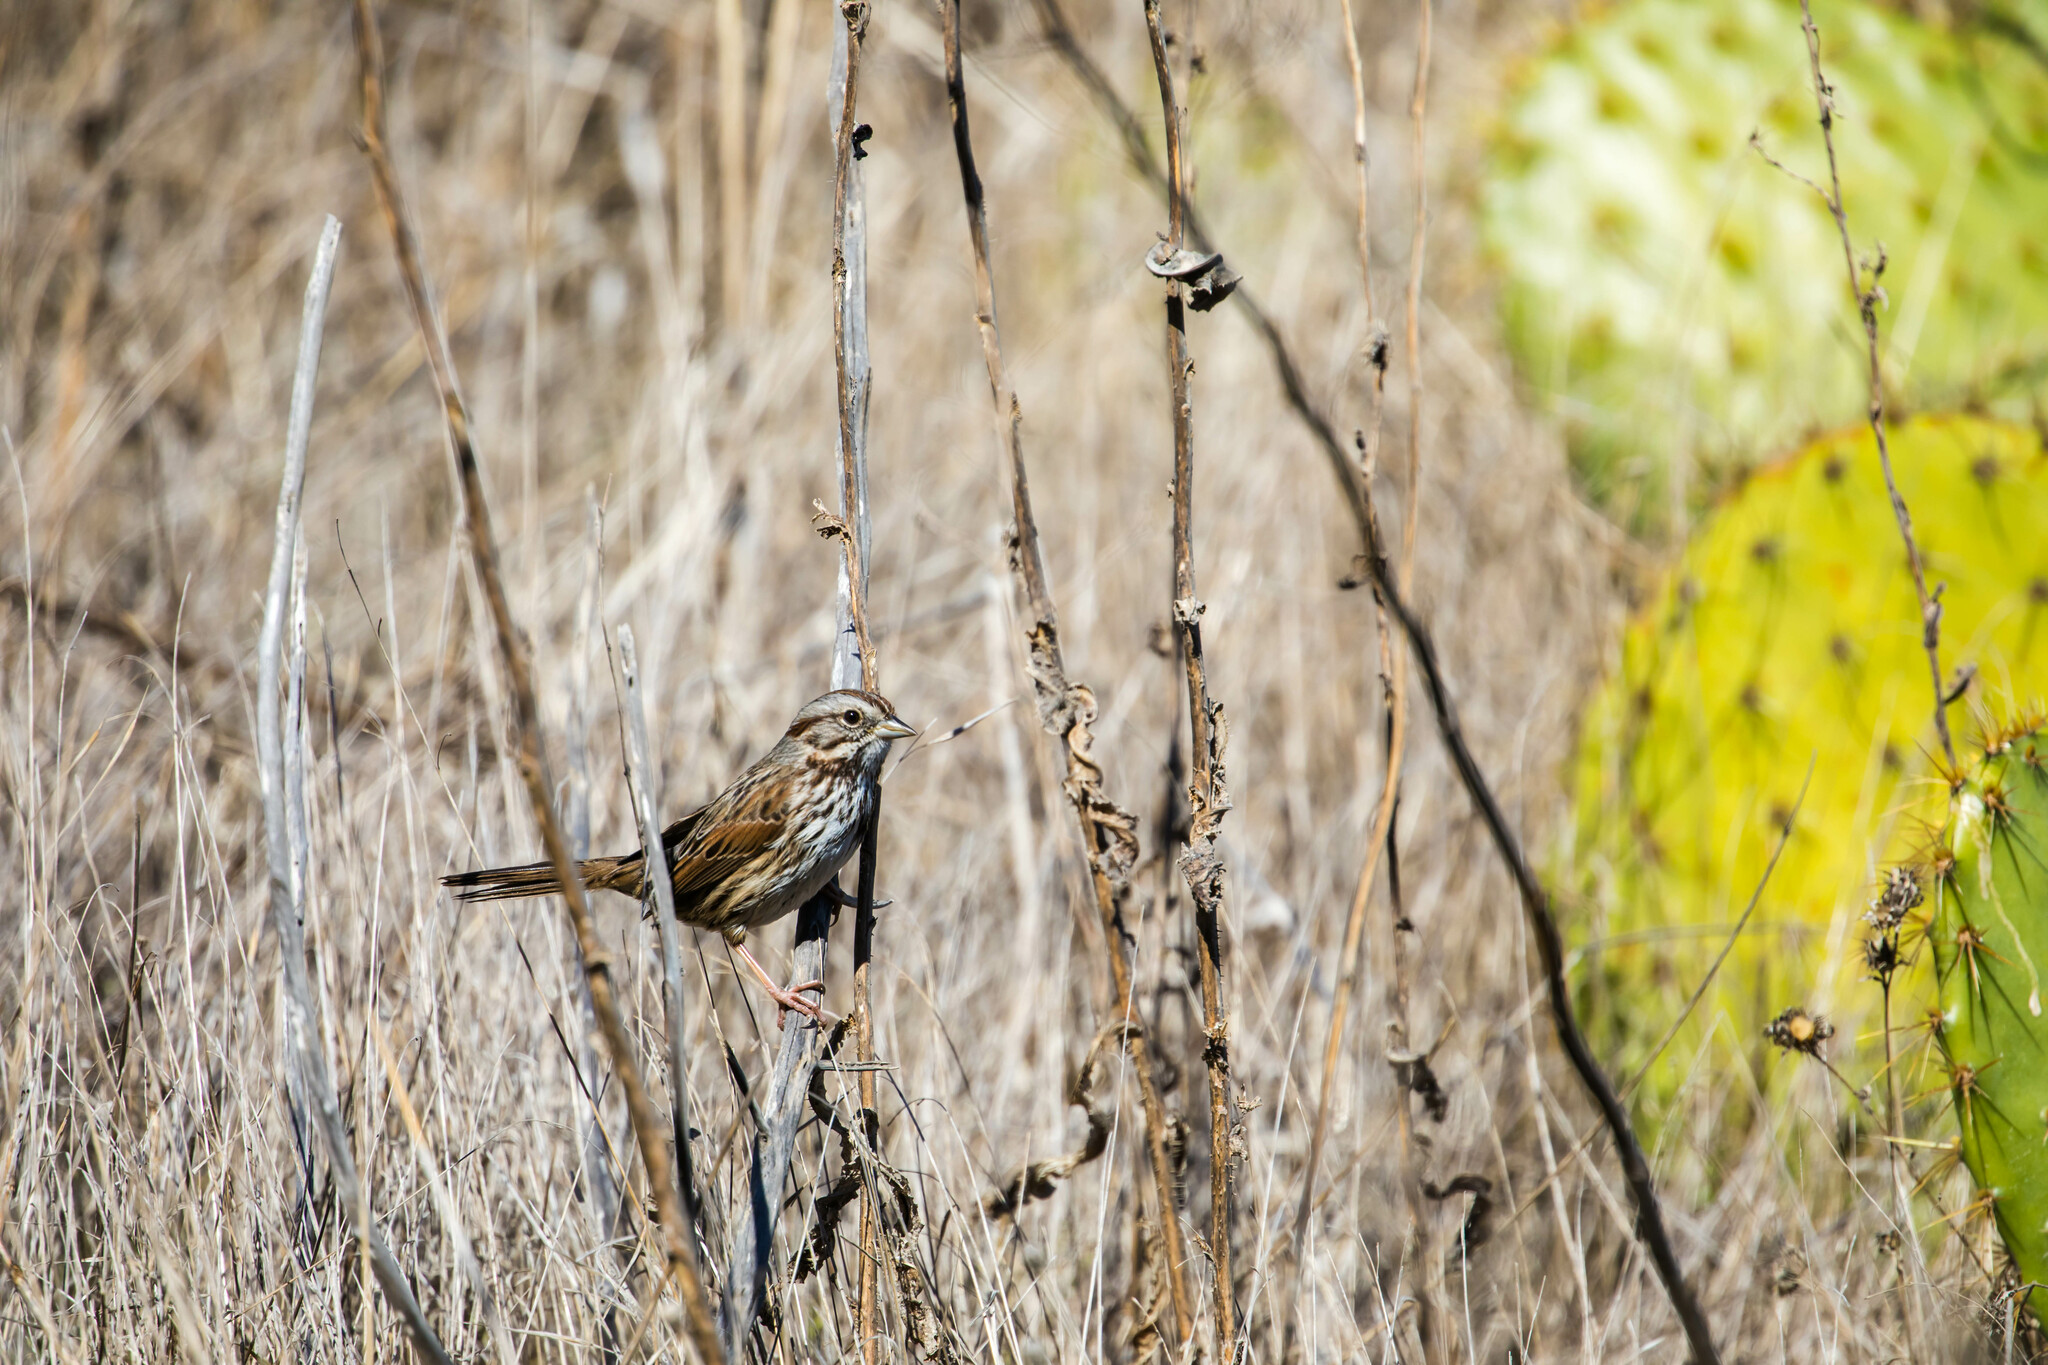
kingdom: Animalia
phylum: Chordata
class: Aves
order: Passeriformes
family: Passerellidae
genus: Melospiza
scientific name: Melospiza melodia
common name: Song sparrow
